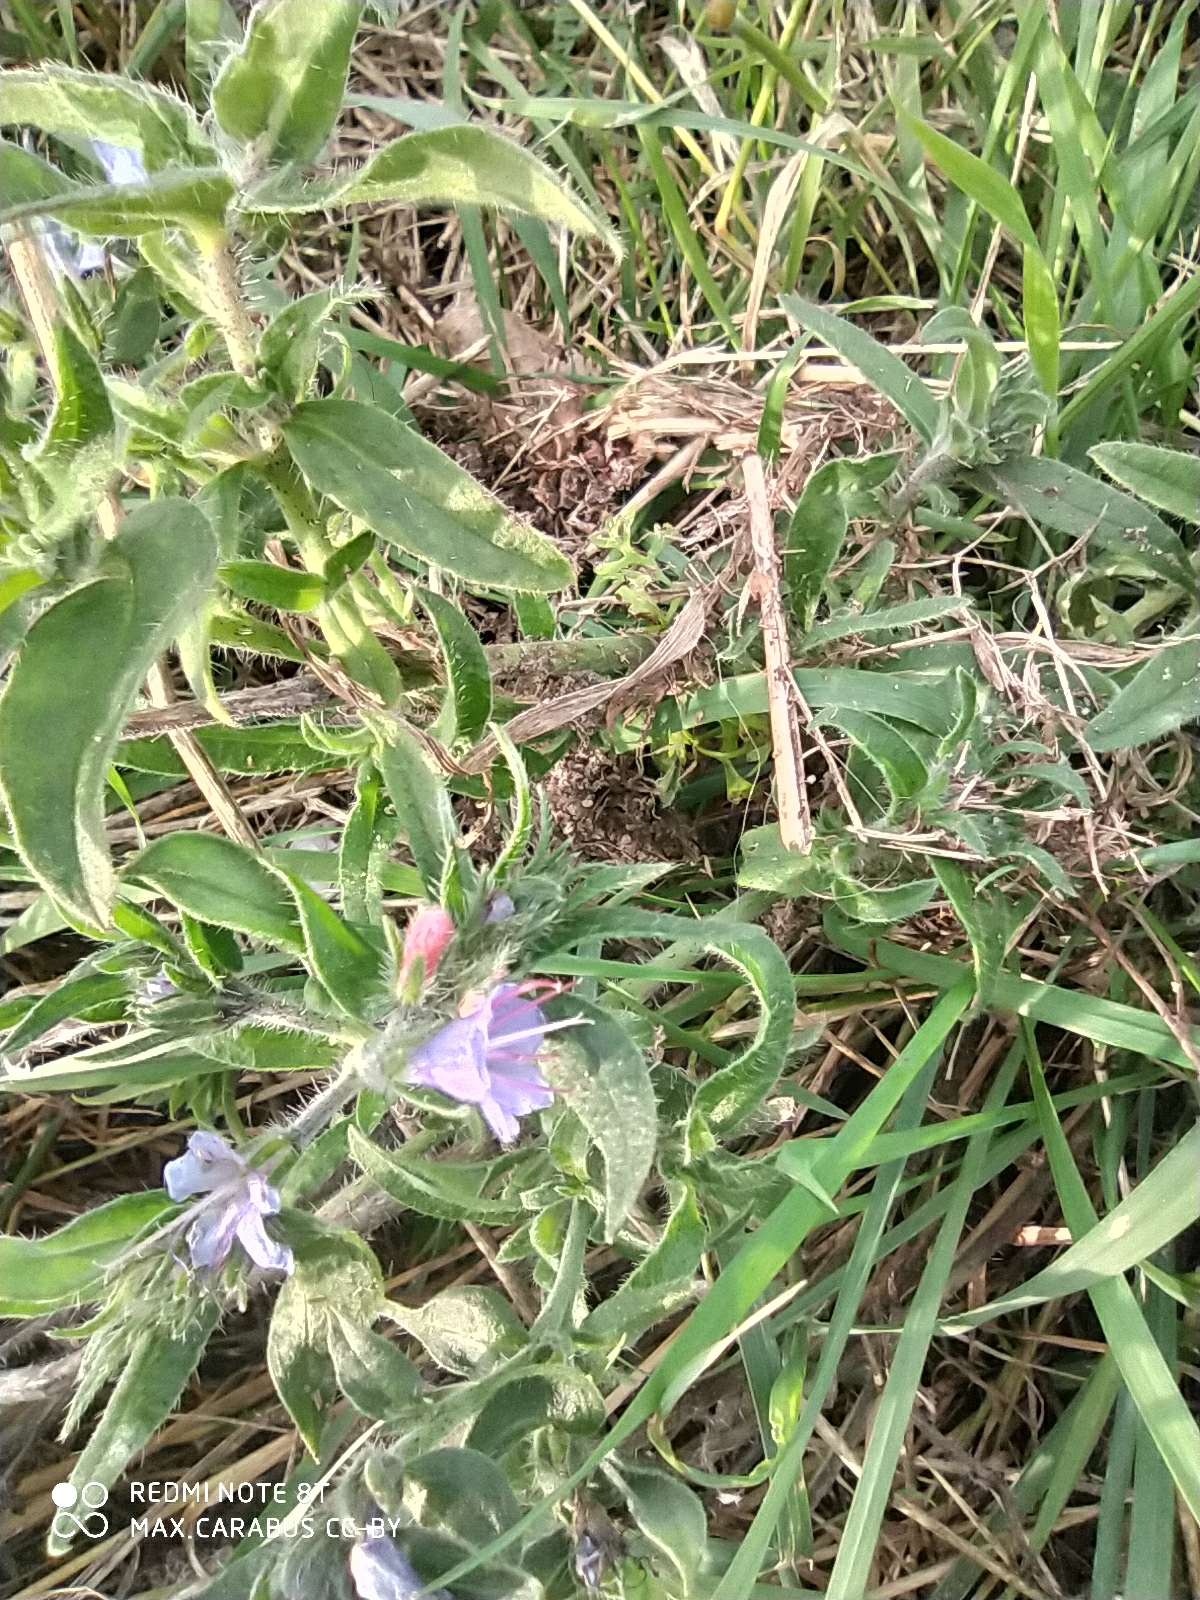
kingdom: Plantae
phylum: Tracheophyta
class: Magnoliopsida
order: Boraginales
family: Boraginaceae
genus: Echium
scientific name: Echium vulgare
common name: Common viper's bugloss
